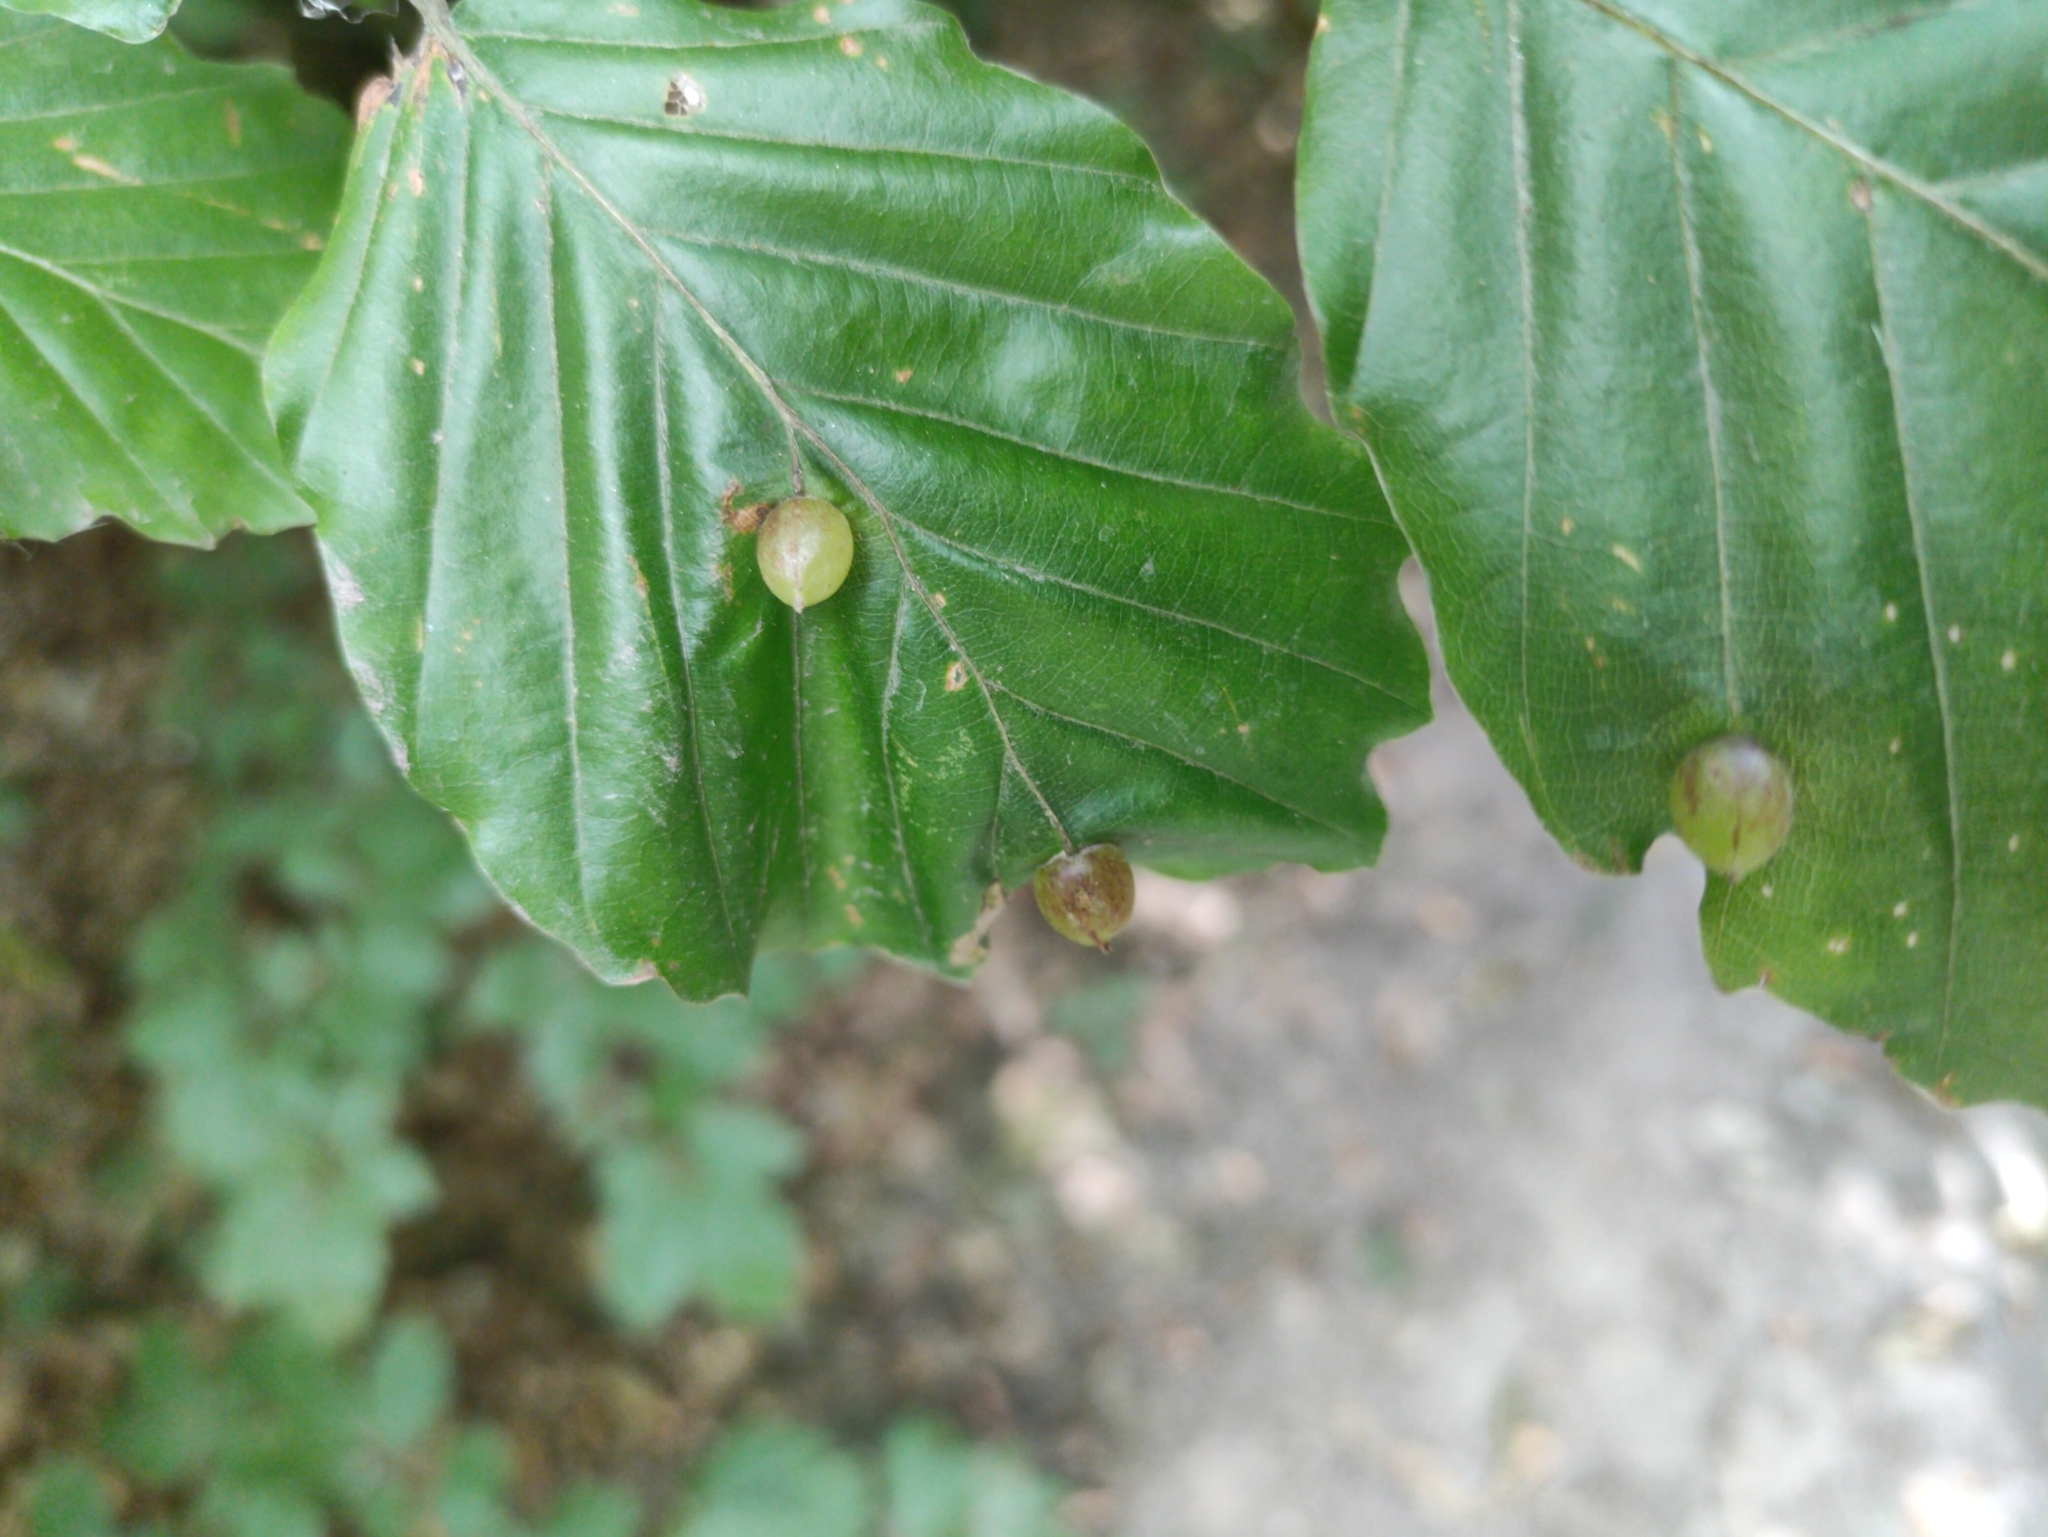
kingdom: Animalia
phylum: Arthropoda
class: Insecta
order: Diptera
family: Cecidomyiidae
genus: Mikiola
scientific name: Mikiola fagi
